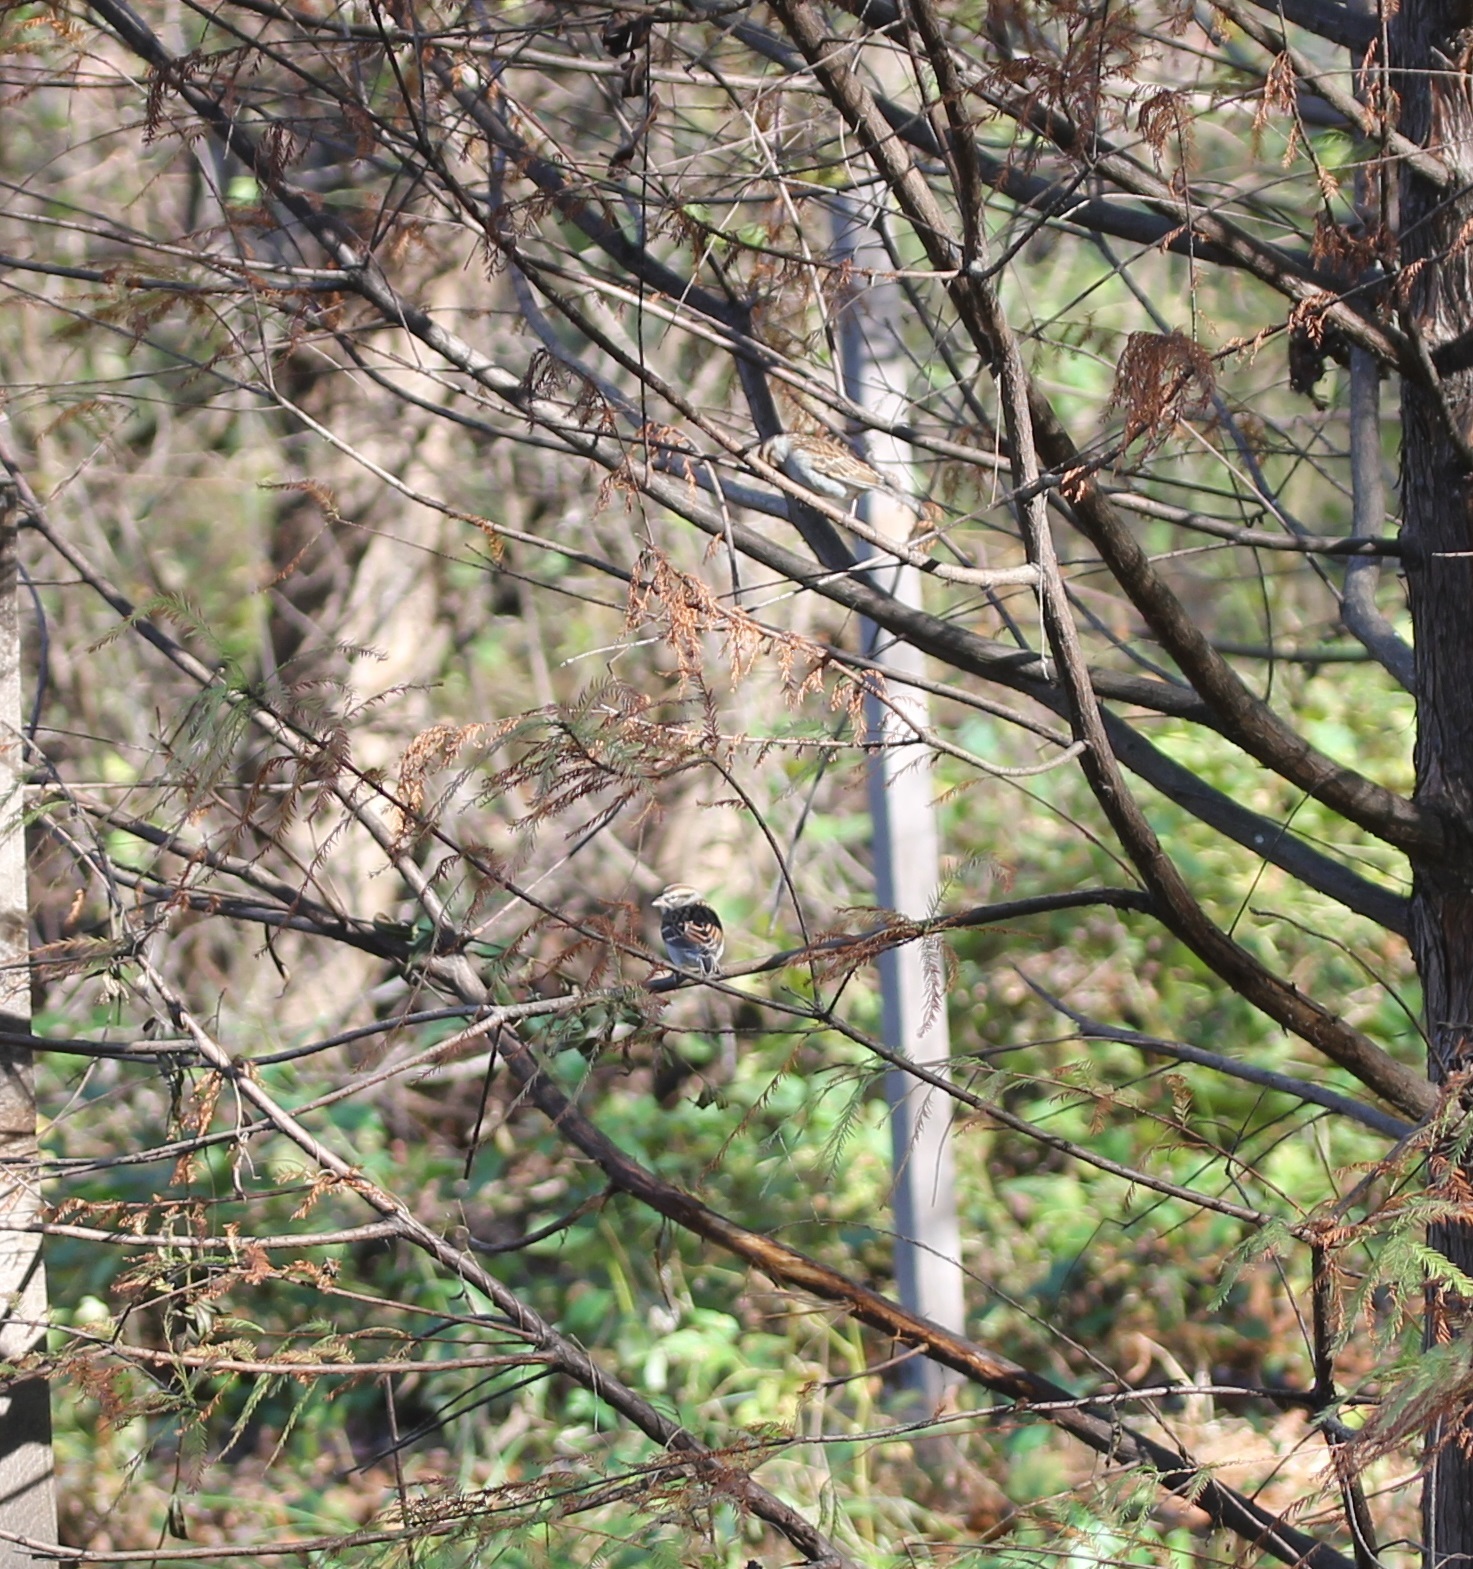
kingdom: Animalia
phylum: Chordata
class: Aves
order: Passeriformes
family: Passerellidae
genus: Spizella
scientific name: Spizella passerina
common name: Chipping sparrow
